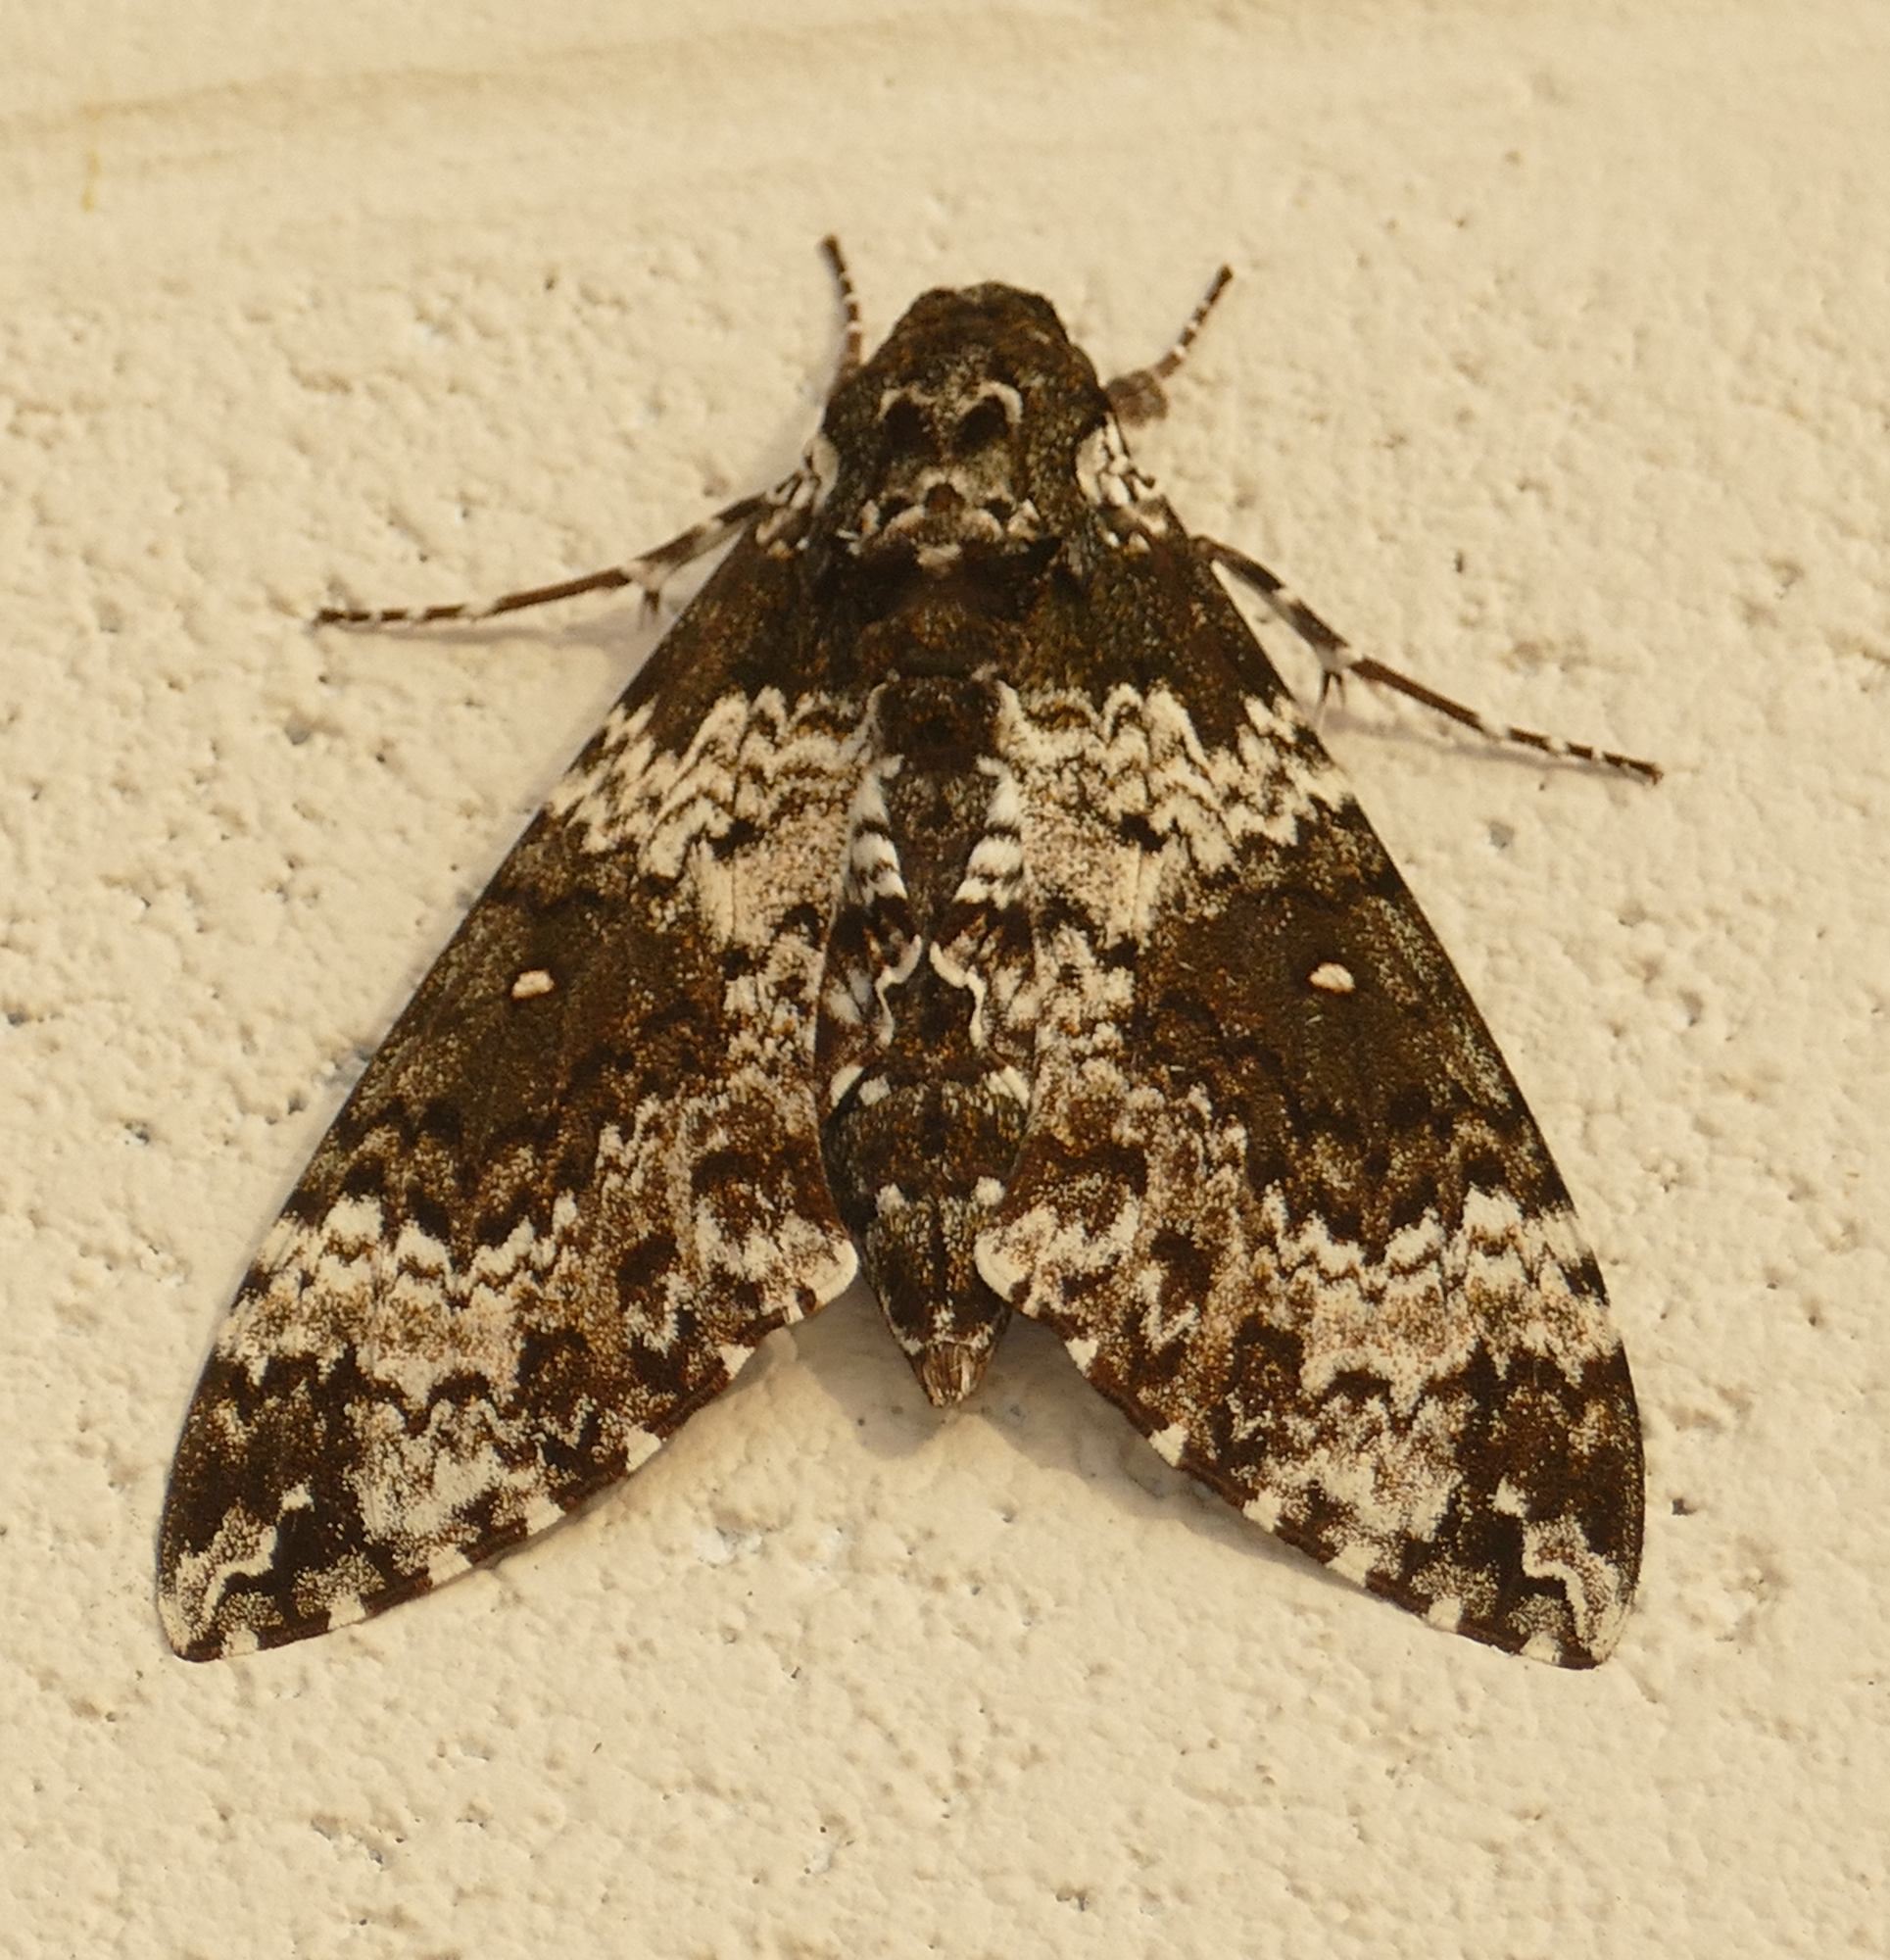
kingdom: Animalia
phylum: Arthropoda
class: Insecta
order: Lepidoptera
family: Sphingidae
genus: Manduca
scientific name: Manduca rustica
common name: Rustic sphinx
